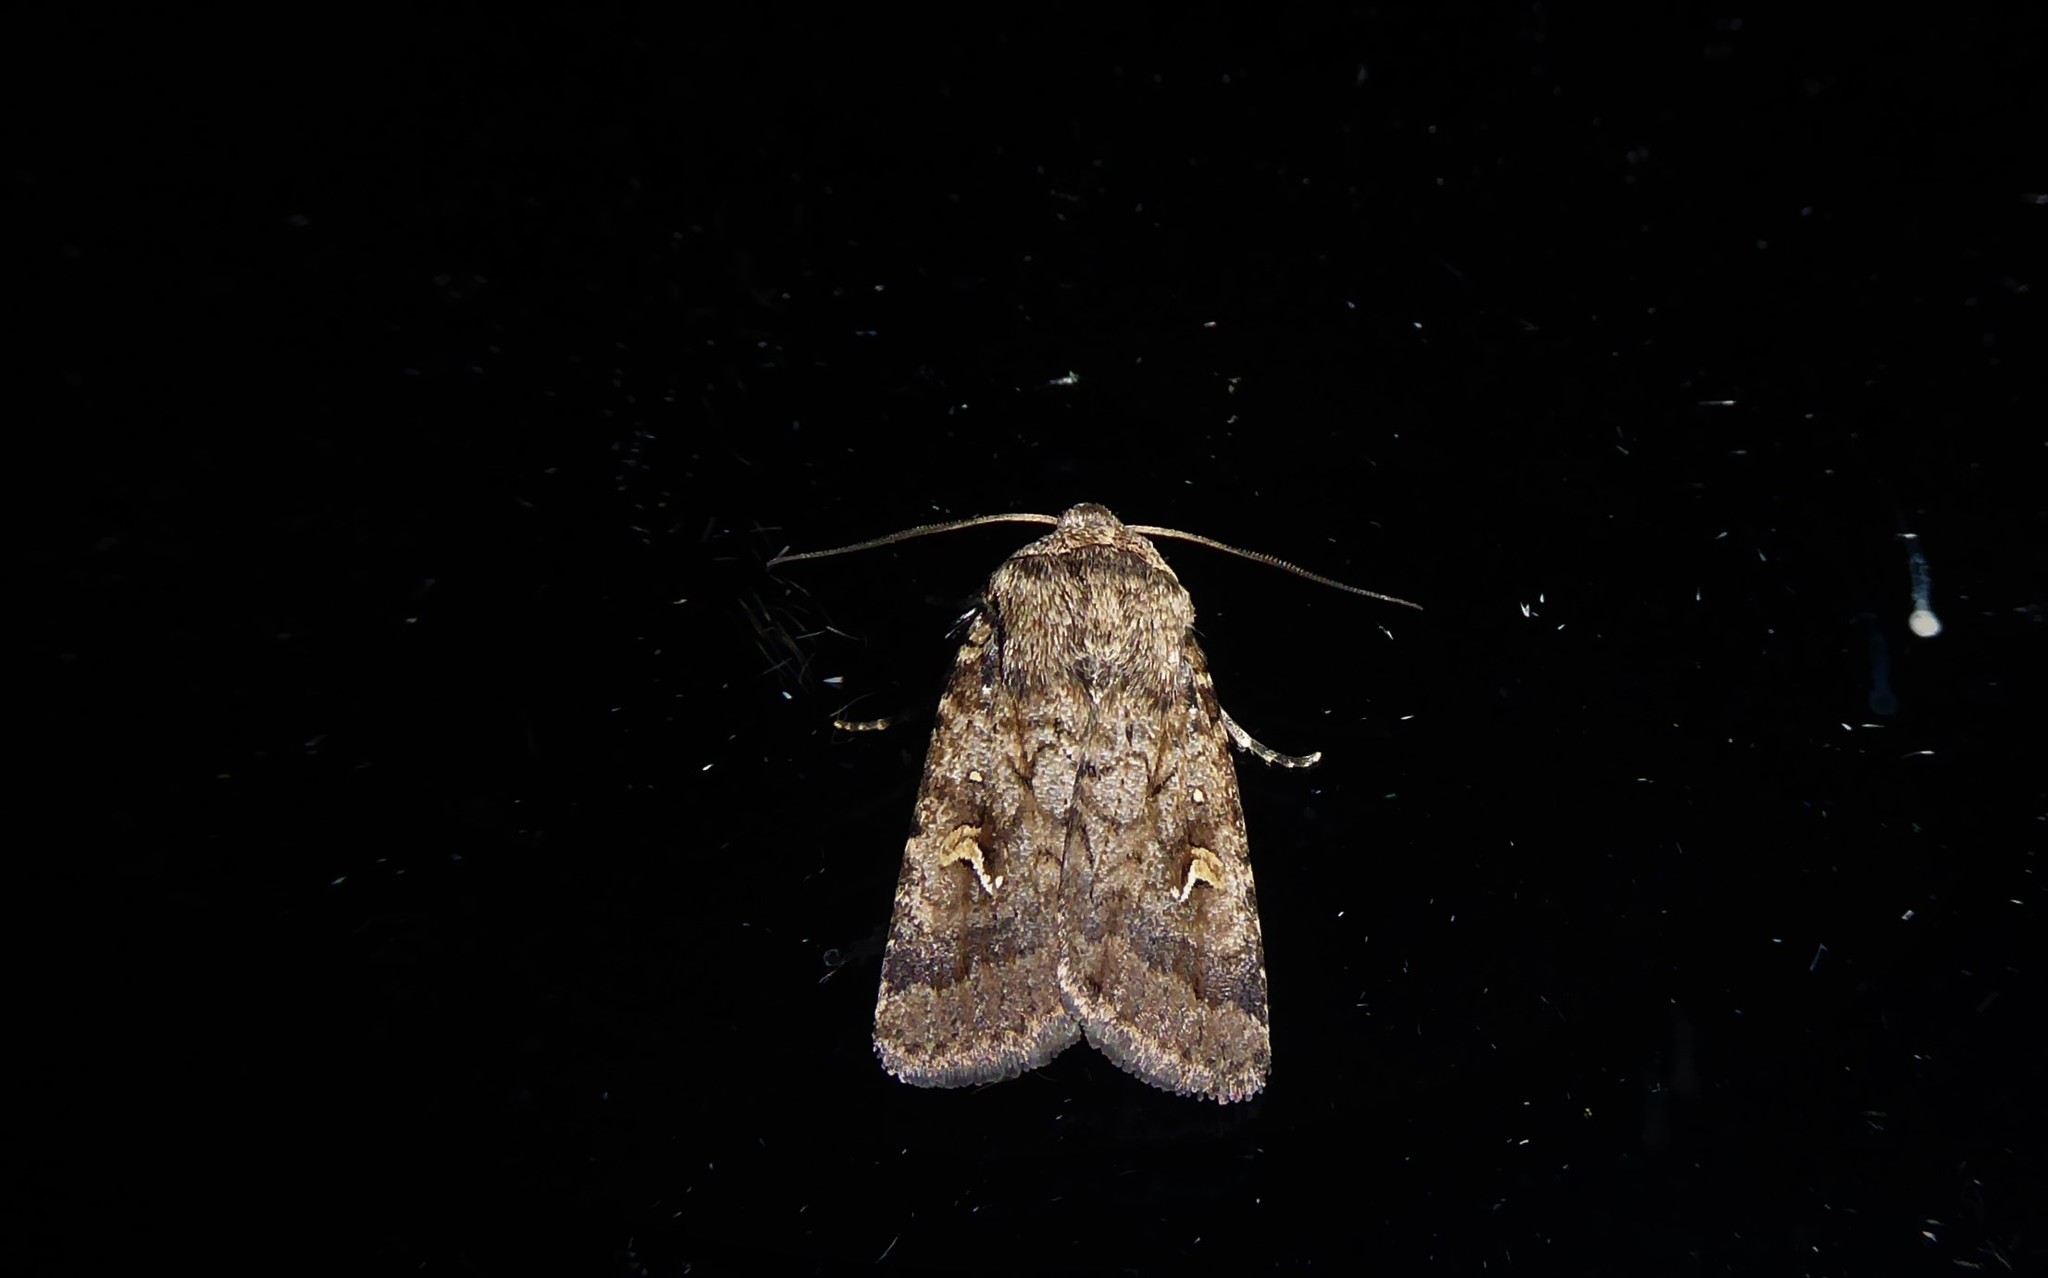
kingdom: Animalia
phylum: Arthropoda
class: Insecta
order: Lepidoptera
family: Noctuidae
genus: Proteuxoa
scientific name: Proteuxoa tetronycha
